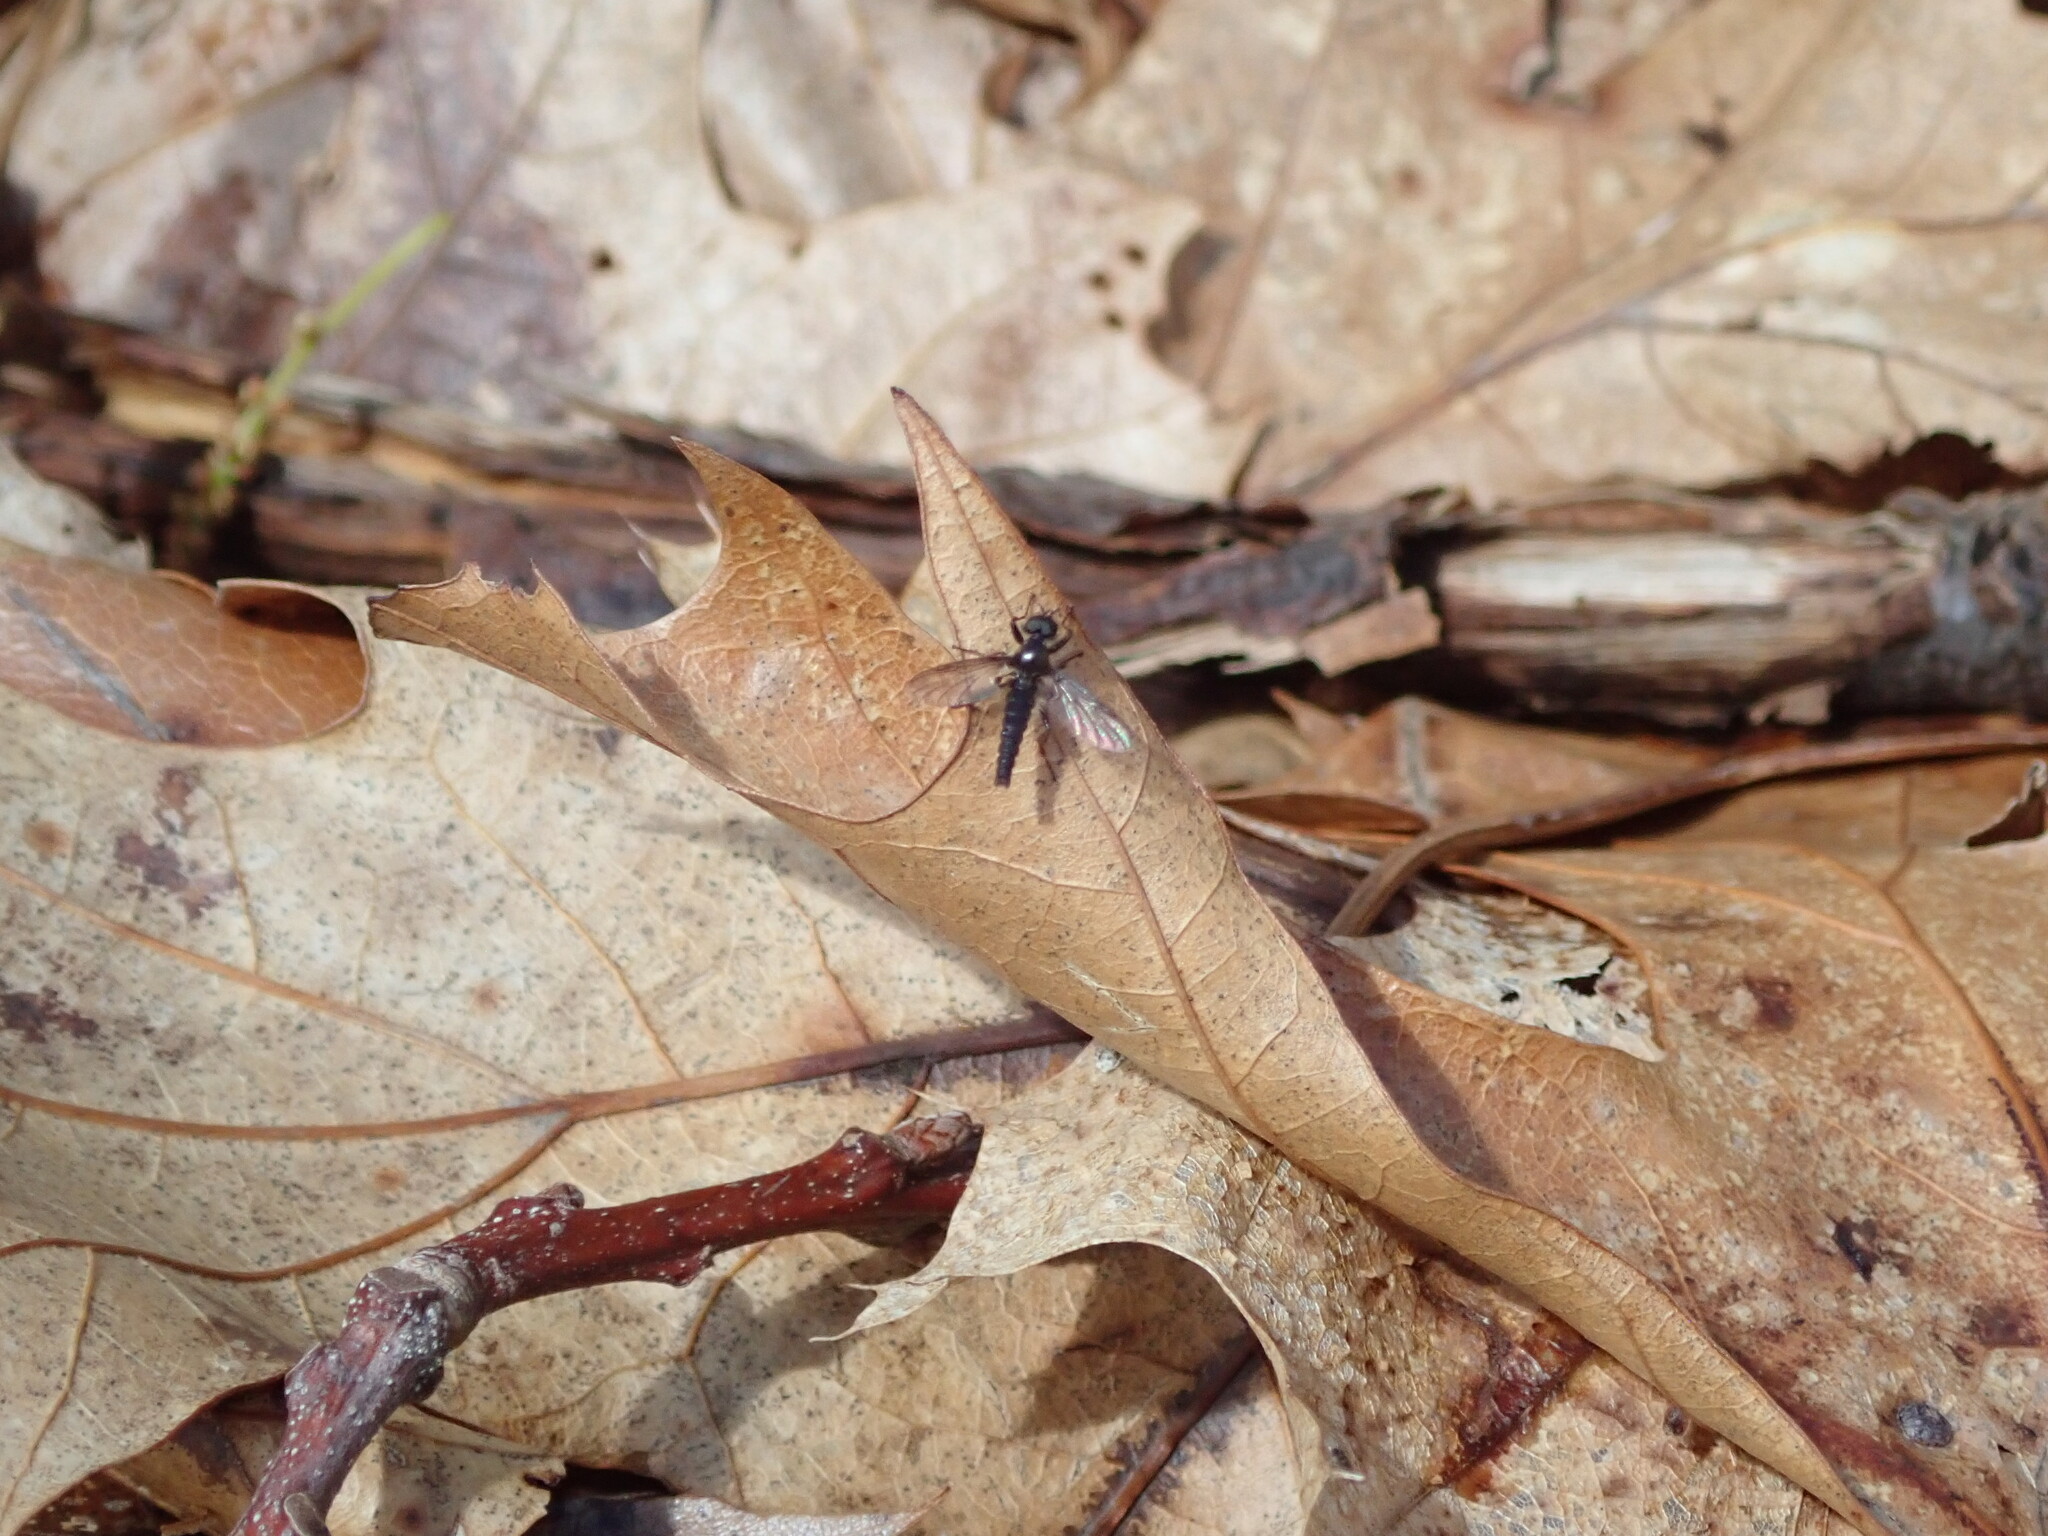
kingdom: Animalia
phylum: Arthropoda
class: Insecta
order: Diptera
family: Bibionidae
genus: Bibio
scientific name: Bibio lanigerus
